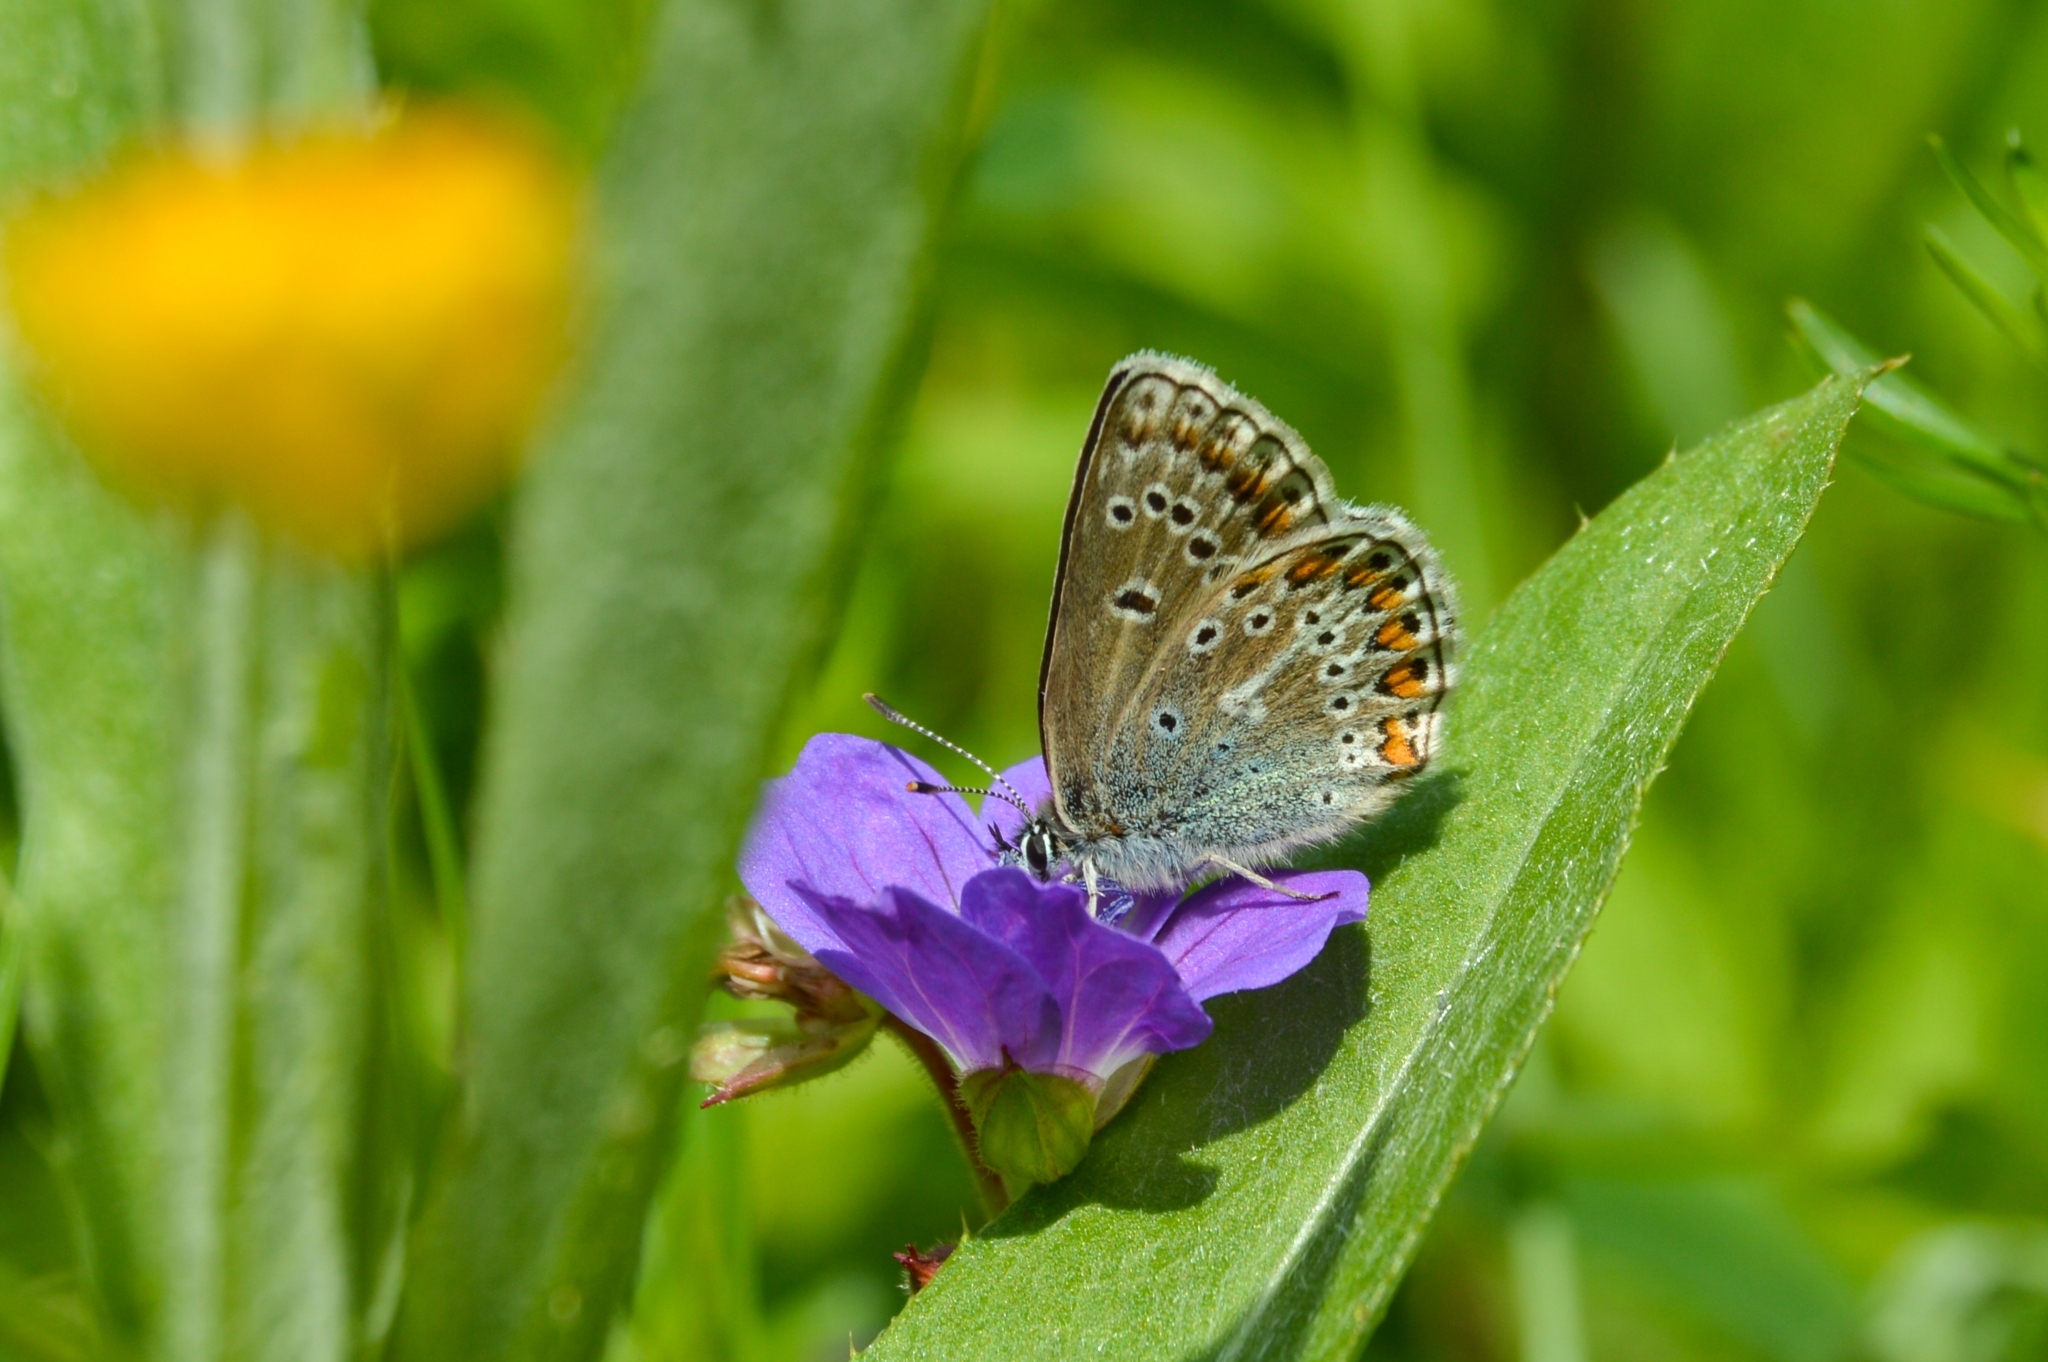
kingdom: Animalia
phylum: Arthropoda
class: Insecta
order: Lepidoptera
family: Lycaenidae
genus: Eumedonia
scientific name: Eumedonia eumedon
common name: Geranium argus
